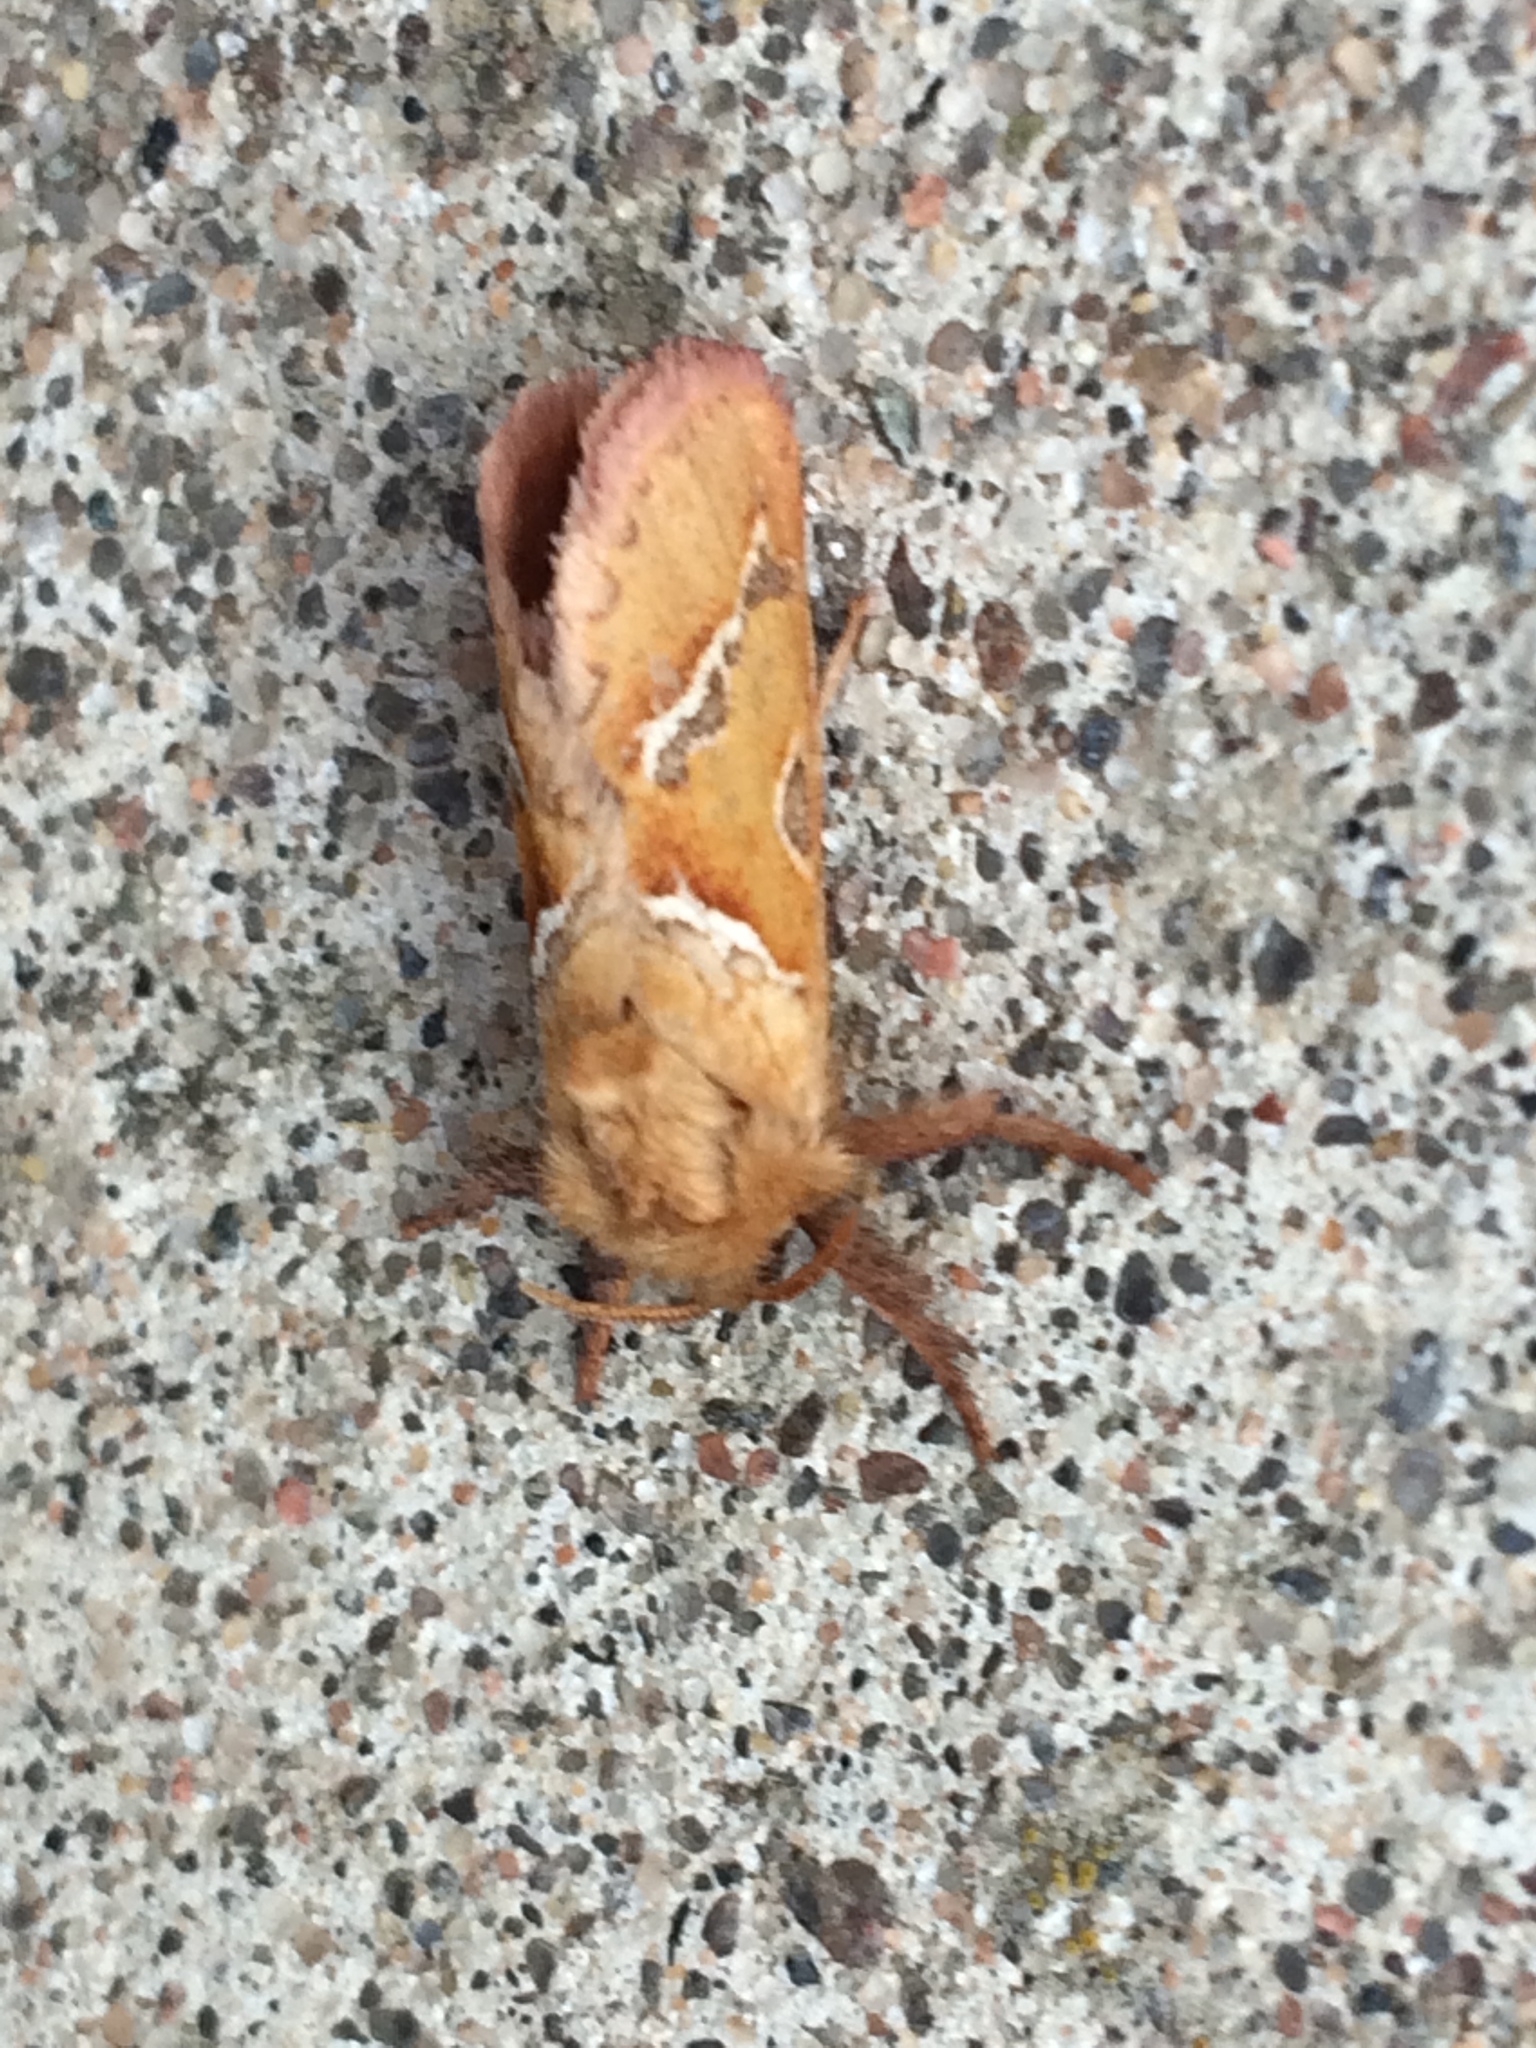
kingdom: Animalia
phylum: Arthropoda
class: Insecta
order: Lepidoptera
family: Hepialidae
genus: Triodia
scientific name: Triodia sylvina
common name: Orange swift
